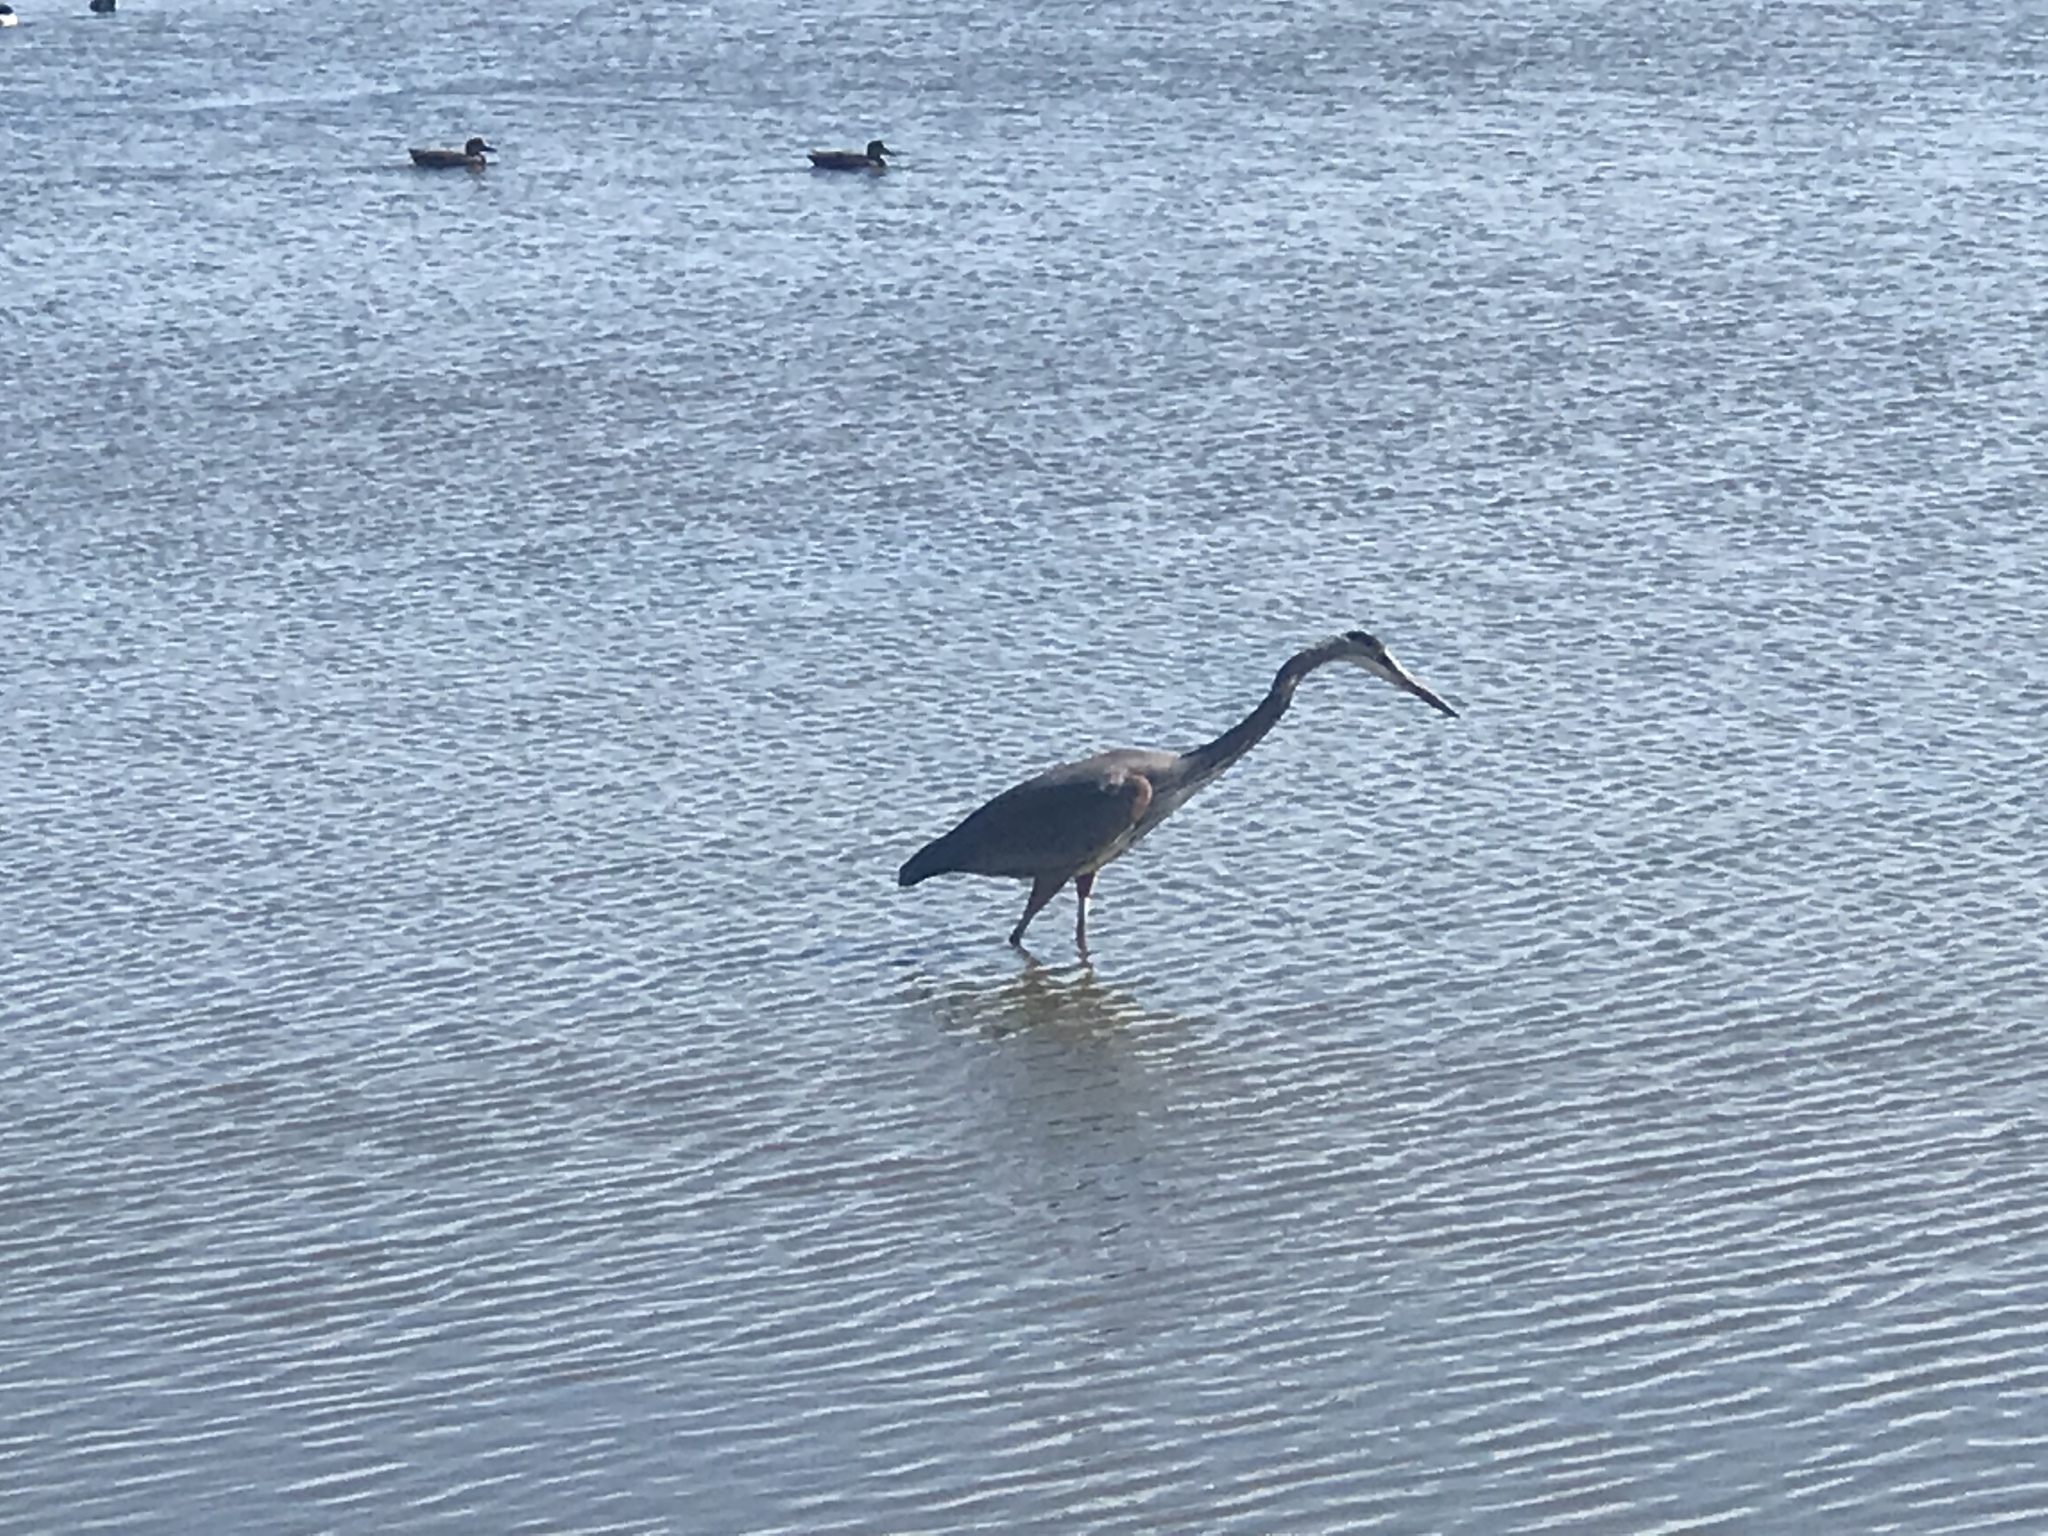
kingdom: Animalia
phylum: Chordata
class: Aves
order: Pelecaniformes
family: Ardeidae
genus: Ardea
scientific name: Ardea herodias
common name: Great blue heron
